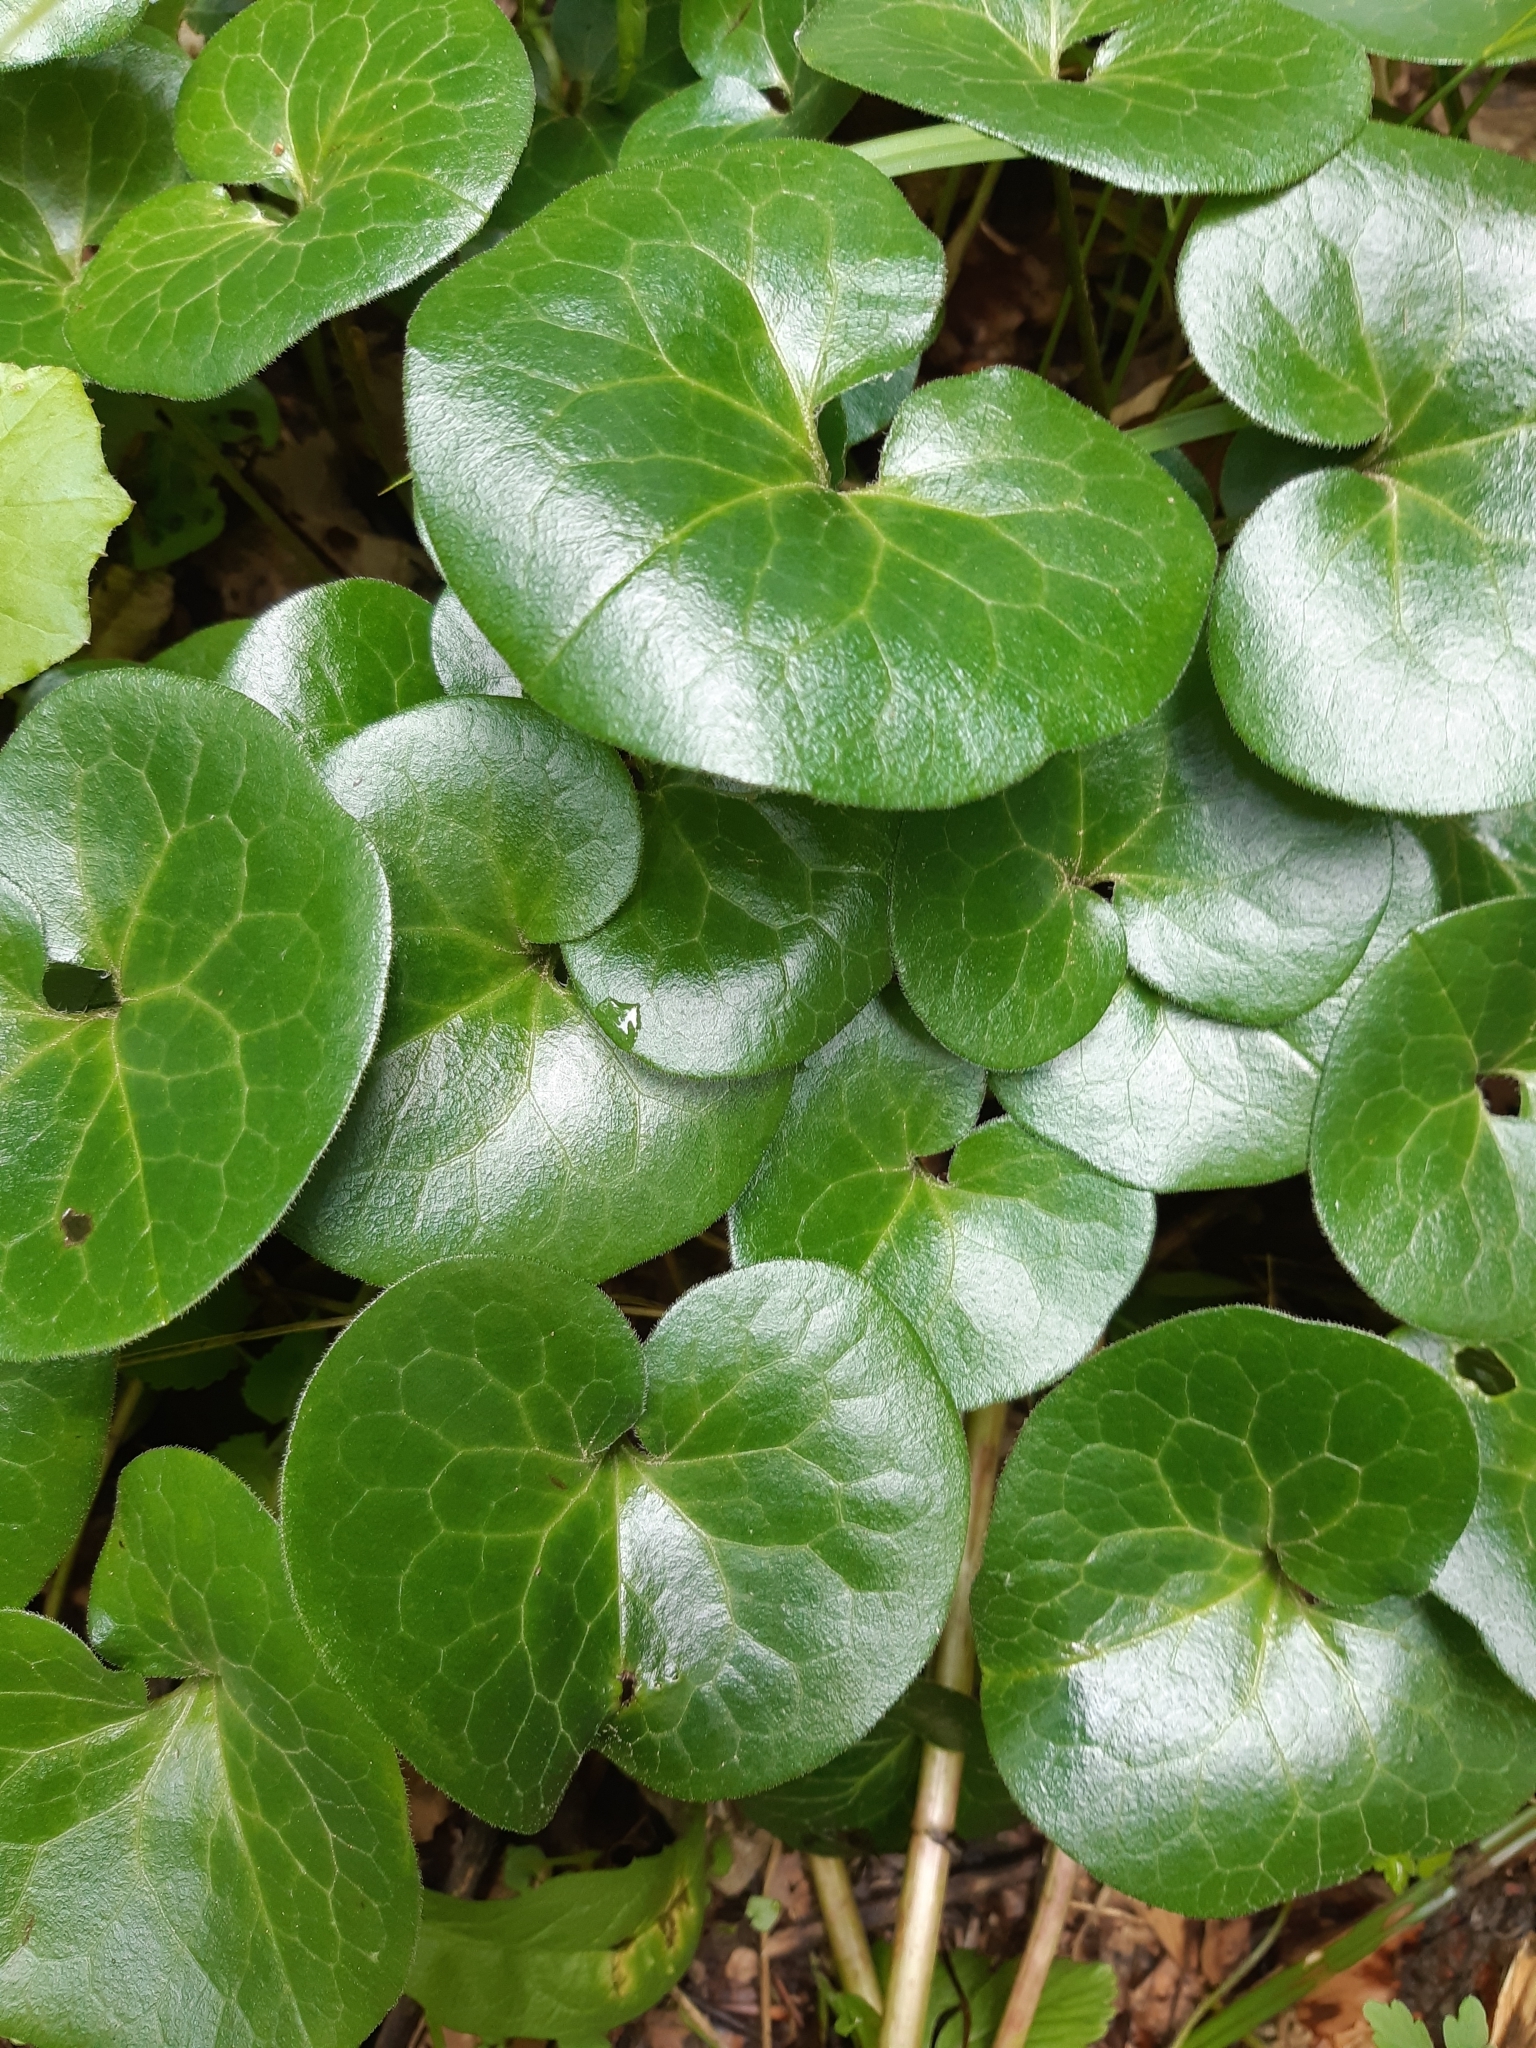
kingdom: Plantae
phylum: Tracheophyta
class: Magnoliopsida
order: Piperales
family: Aristolochiaceae
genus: Asarum
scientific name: Asarum europaeum
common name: Asarabacca
